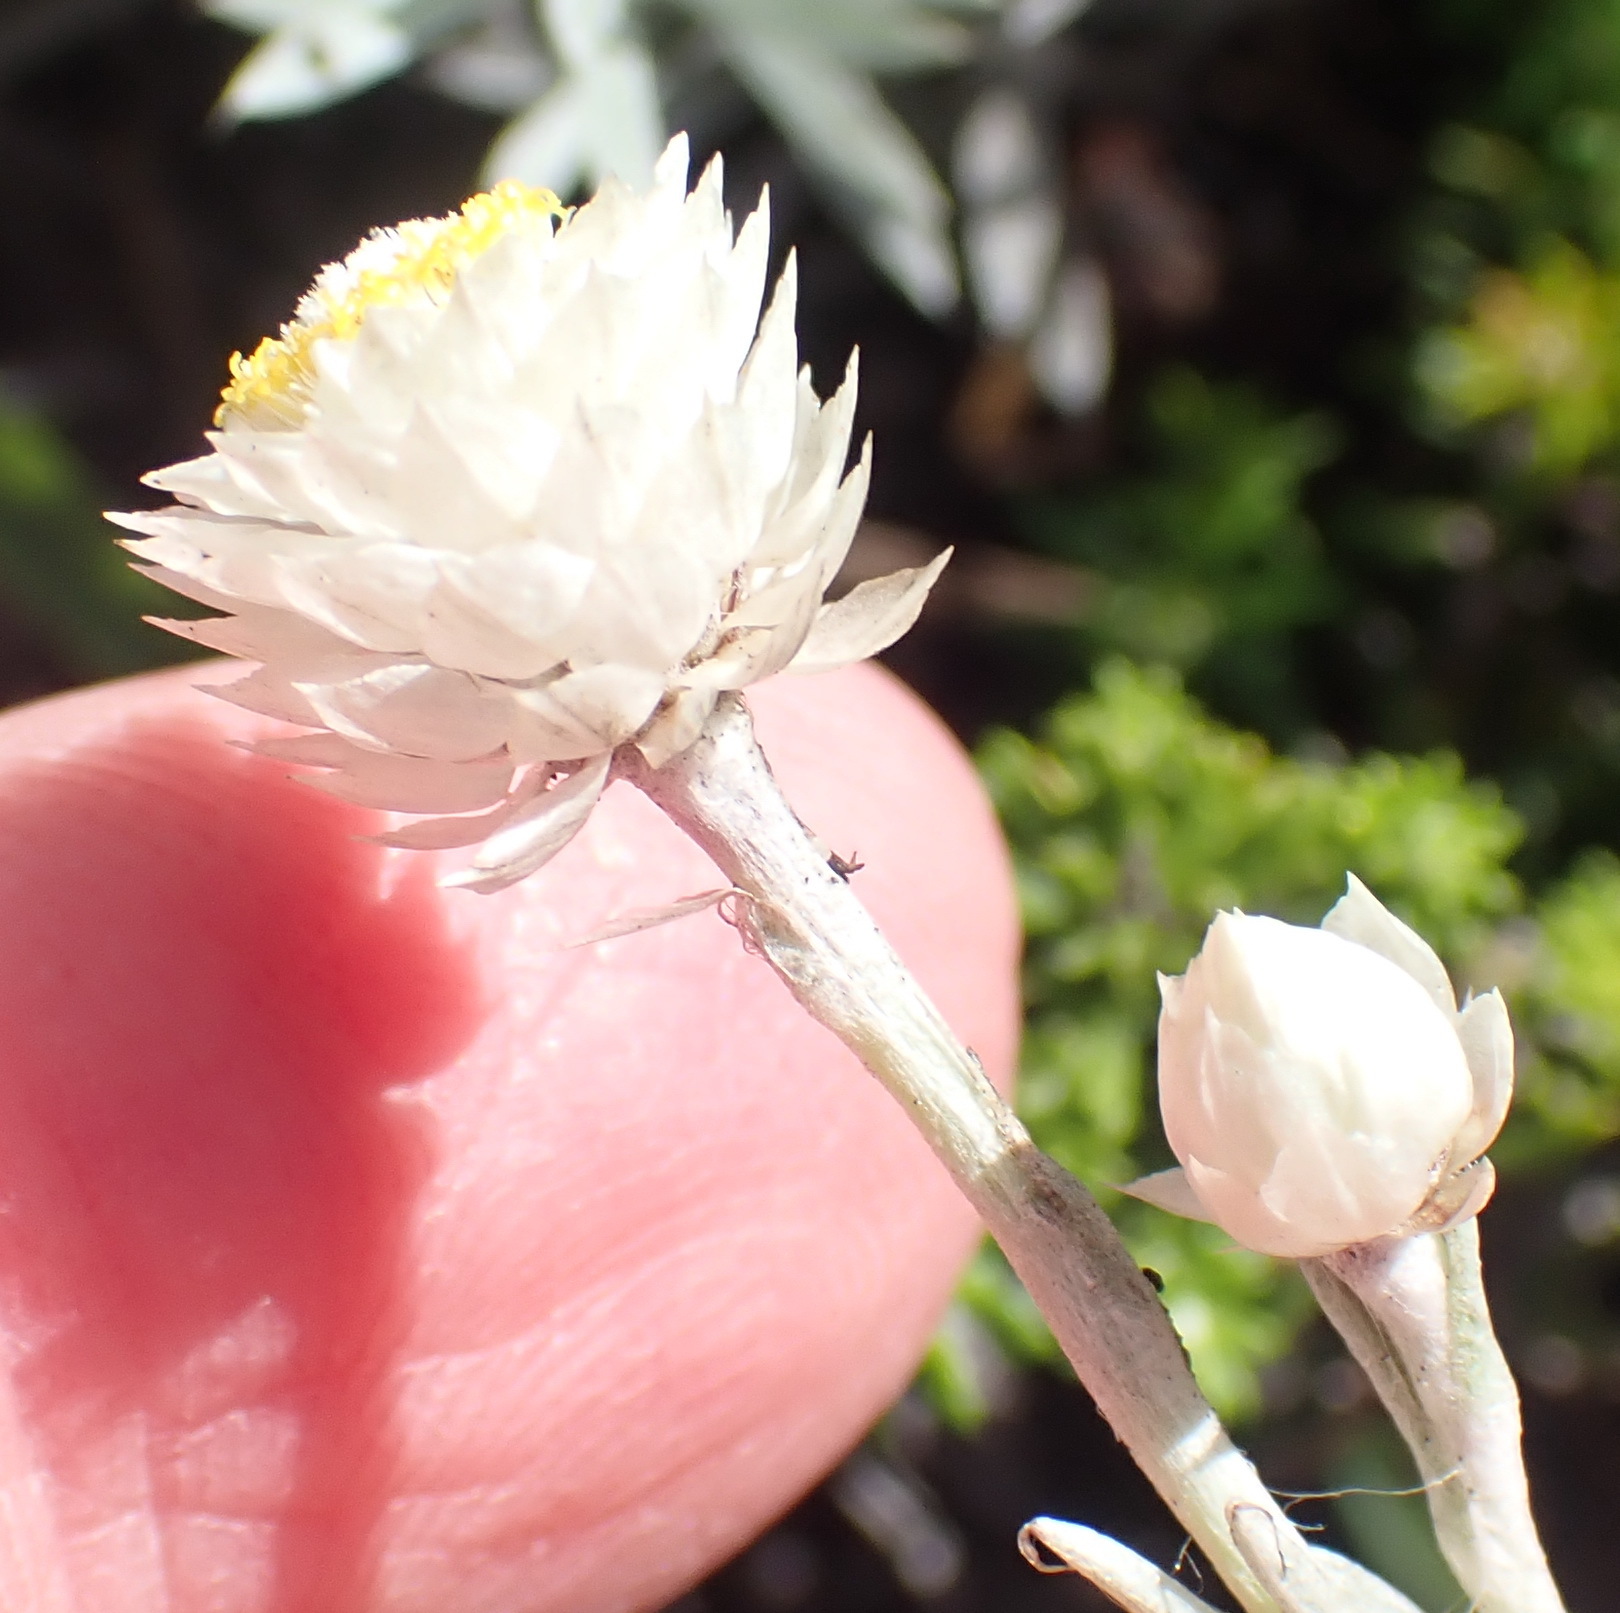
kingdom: Plantae
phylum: Tracheophyta
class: Magnoliopsida
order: Asterales
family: Asteraceae
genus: Achyranthemum
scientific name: Achyranthemum paniculatum
